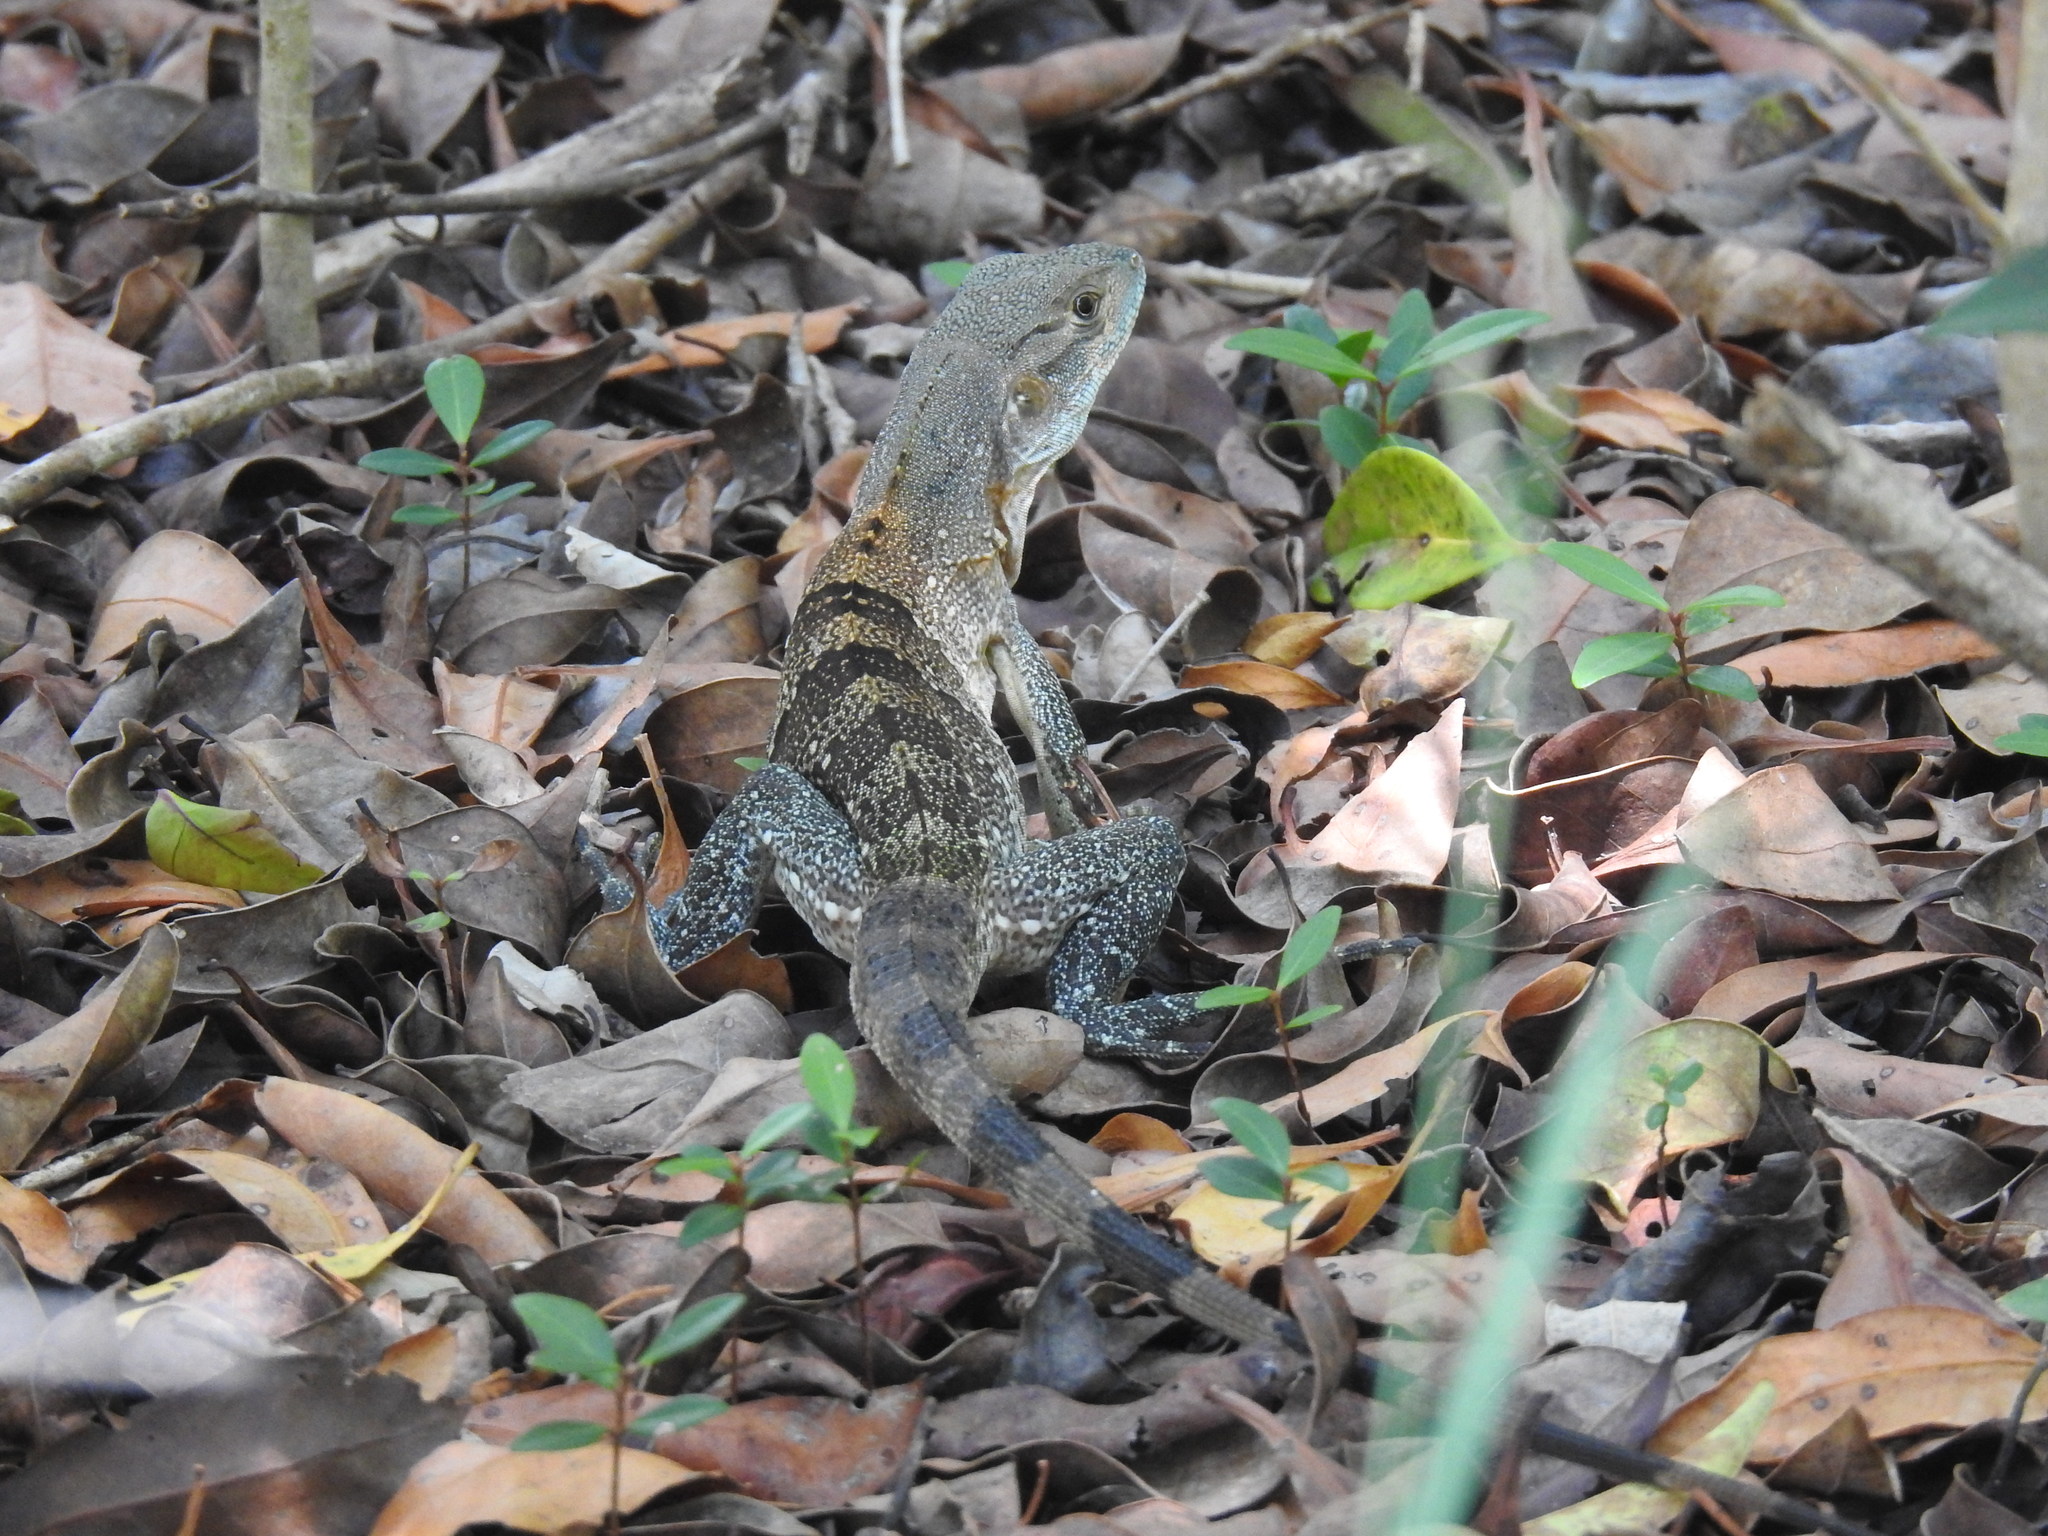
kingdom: Animalia
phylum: Chordata
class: Squamata
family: Iguanidae
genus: Ctenosaura
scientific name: Ctenosaura similis
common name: Black spiny-tailed iguana
